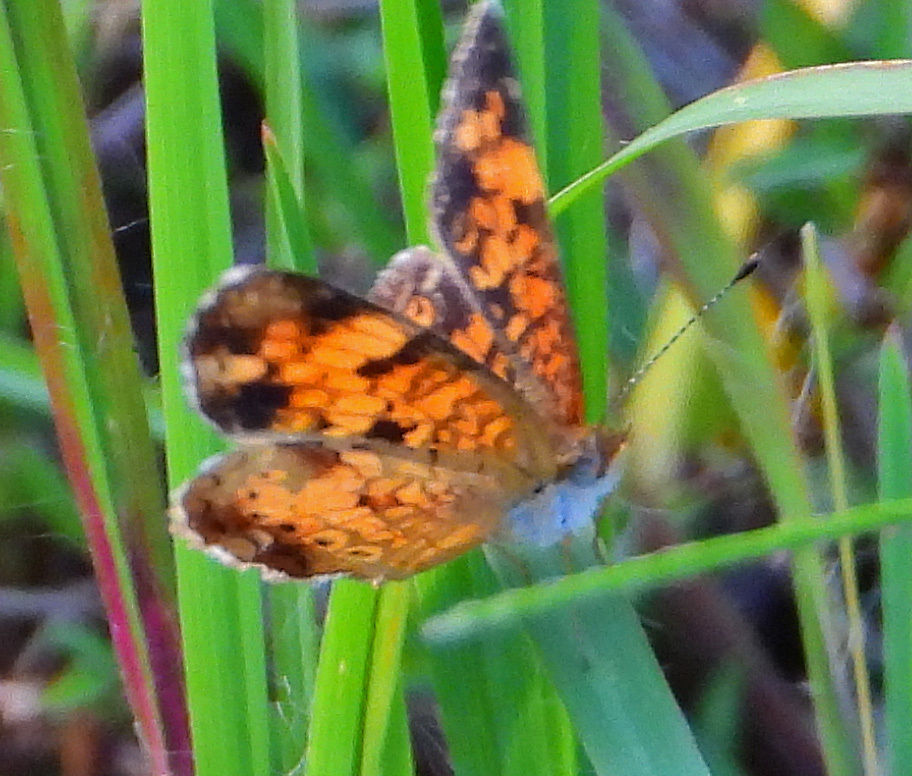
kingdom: Animalia
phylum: Arthropoda
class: Insecta
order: Lepidoptera
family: Nymphalidae
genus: Phyciodes
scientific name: Phyciodes tharos
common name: Pearl crescent
